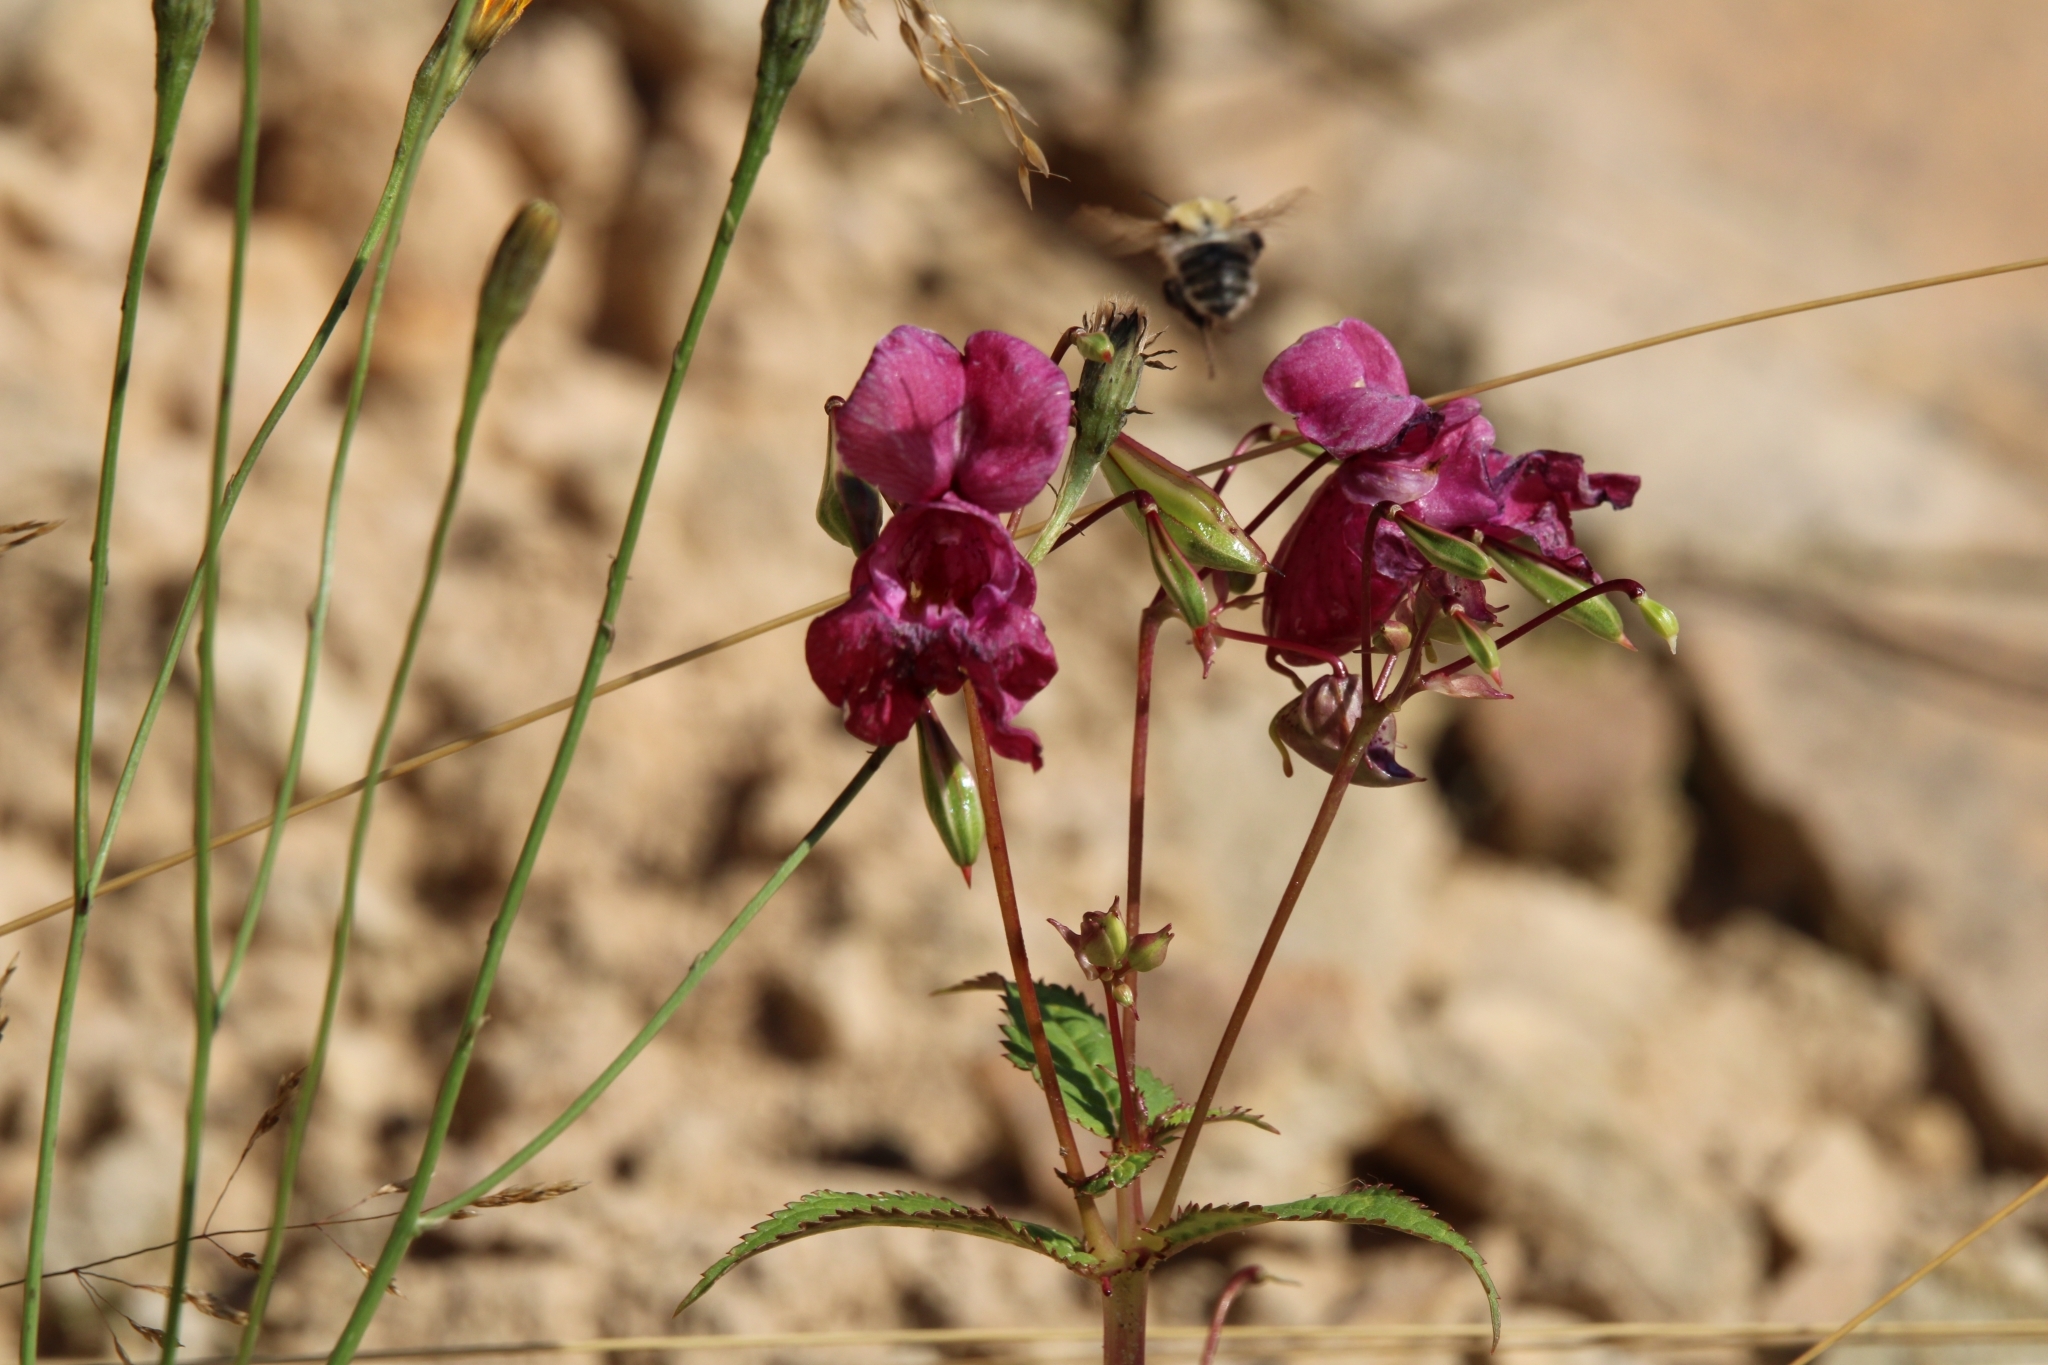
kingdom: Plantae
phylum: Tracheophyta
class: Magnoliopsida
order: Ericales
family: Balsaminaceae
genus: Impatiens
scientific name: Impatiens glandulifera
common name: Himalayan balsam
